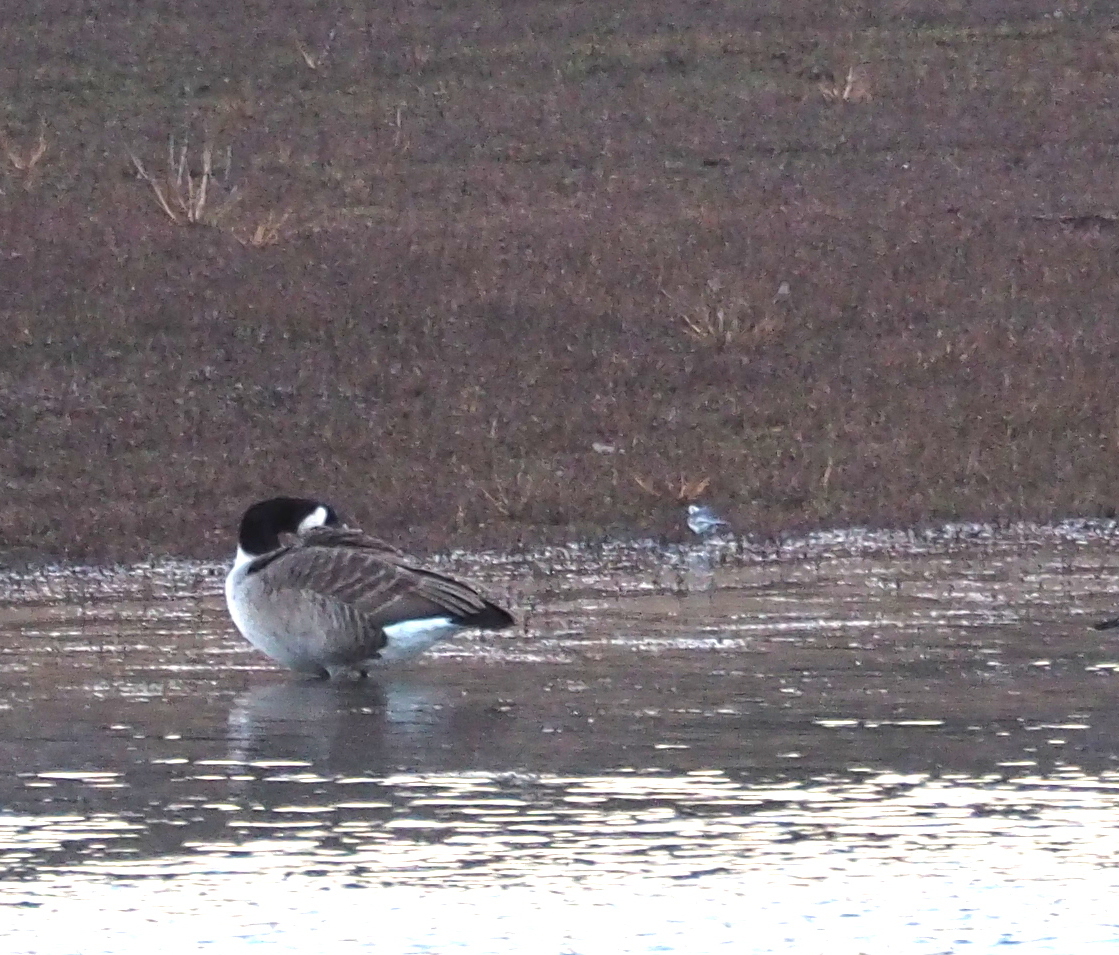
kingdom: Animalia
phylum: Chordata
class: Aves
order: Passeriformes
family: Motacillidae
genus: Motacilla
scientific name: Motacilla alba
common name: White wagtail
